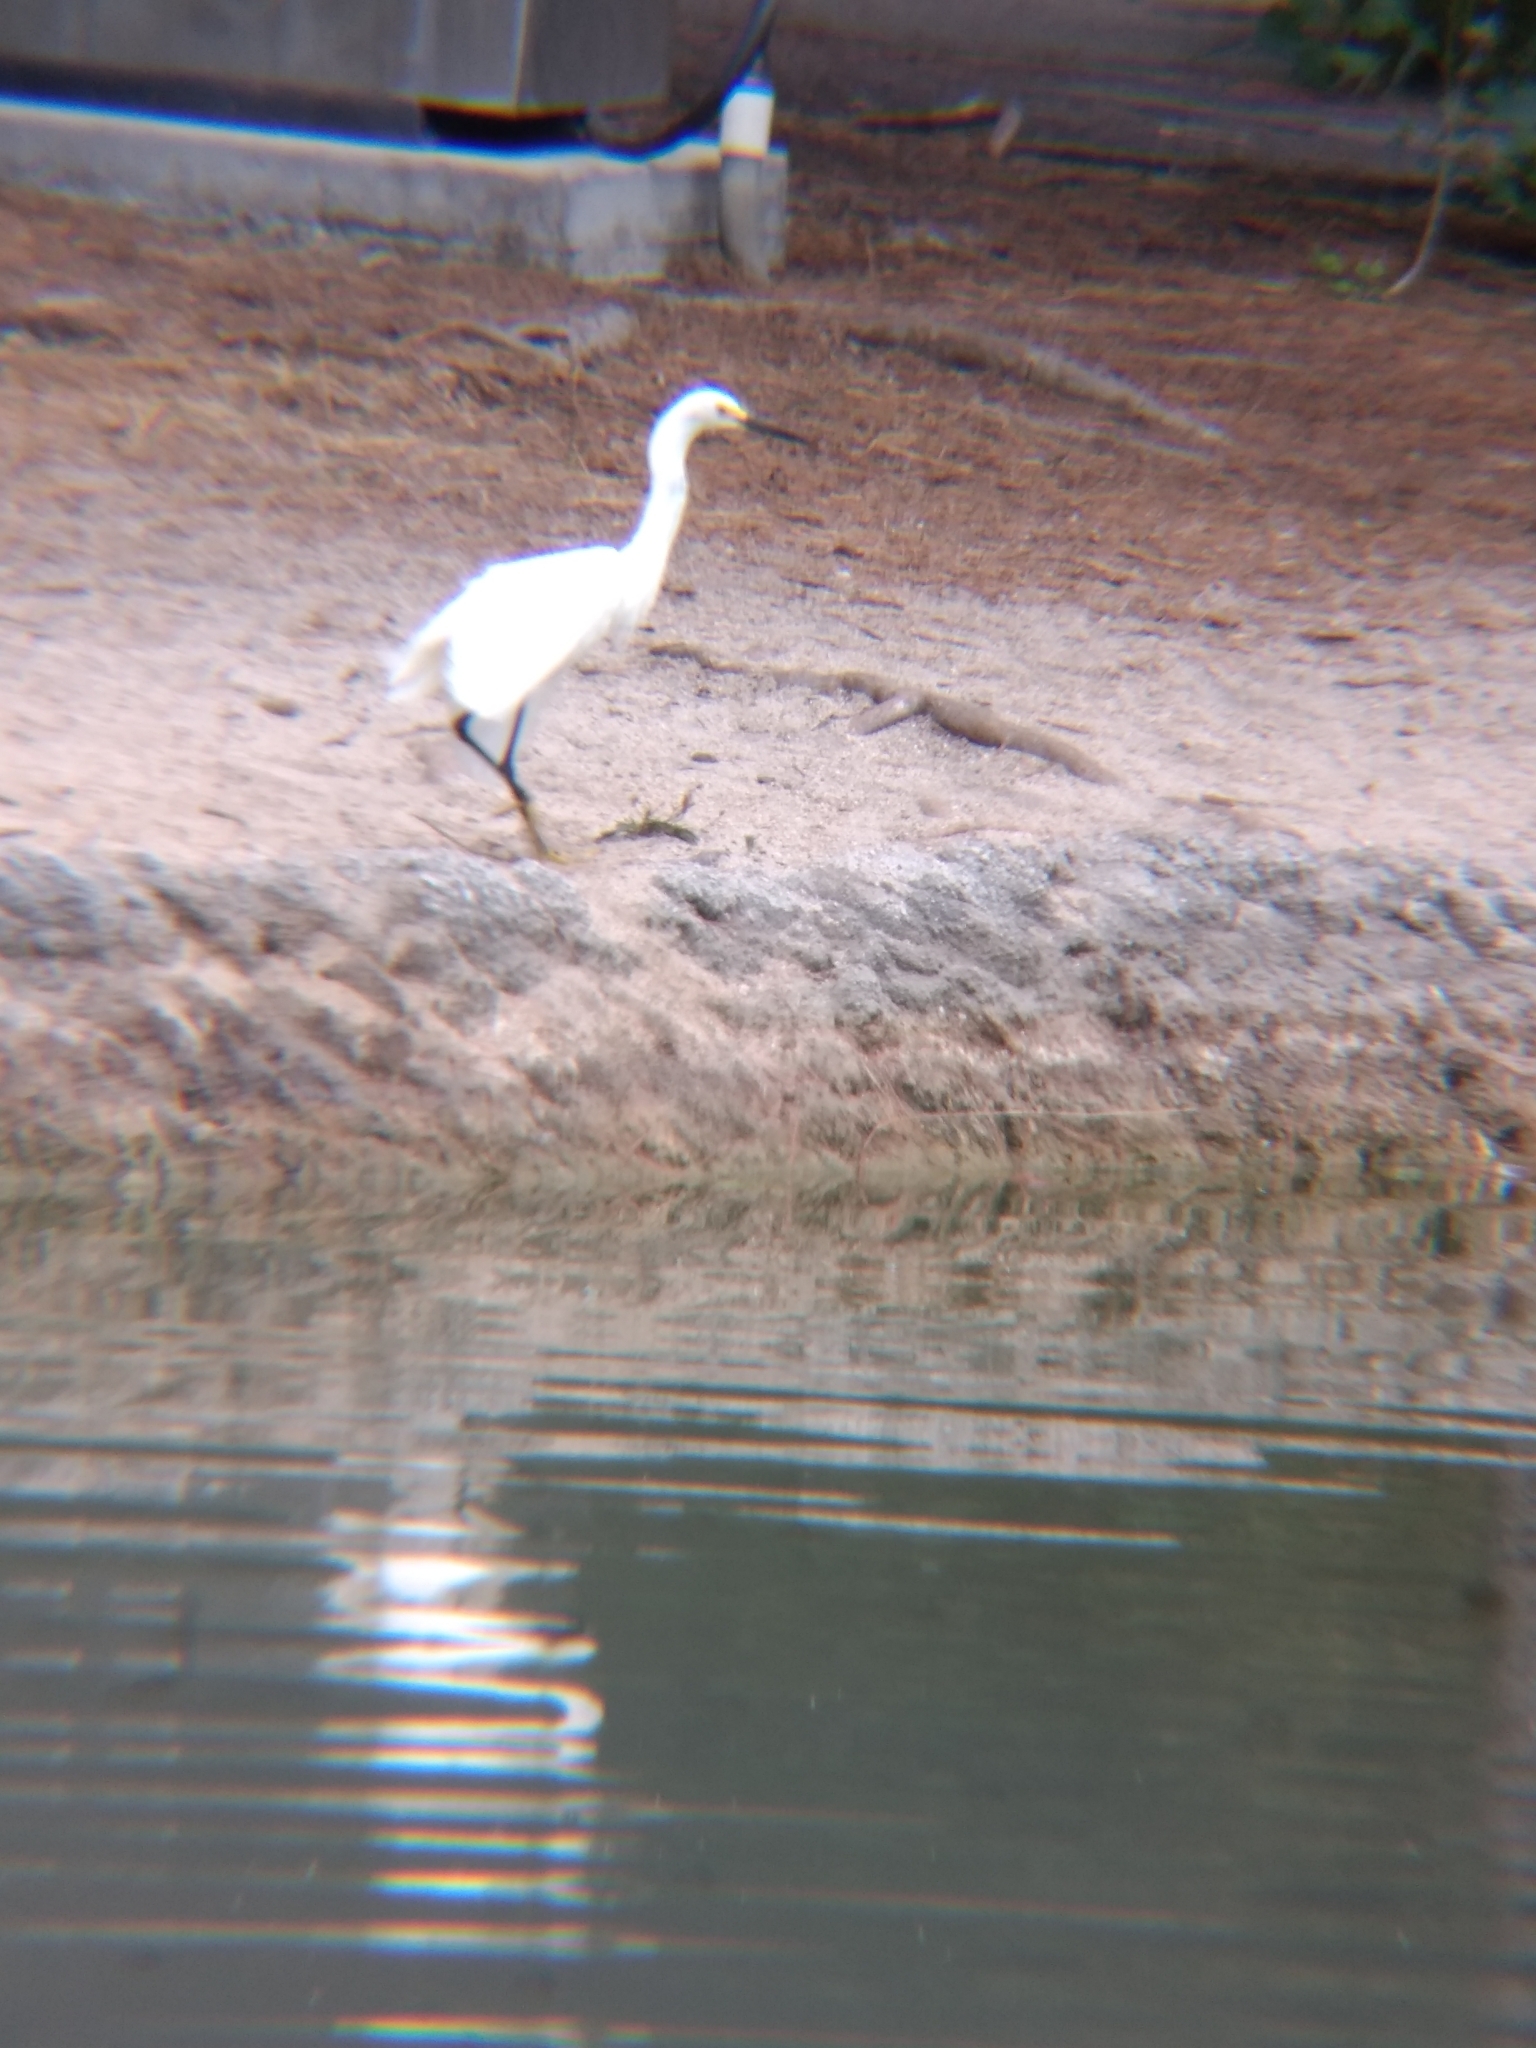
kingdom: Animalia
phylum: Chordata
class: Aves
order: Pelecaniformes
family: Ardeidae
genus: Egretta
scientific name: Egretta thula
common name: Snowy egret
